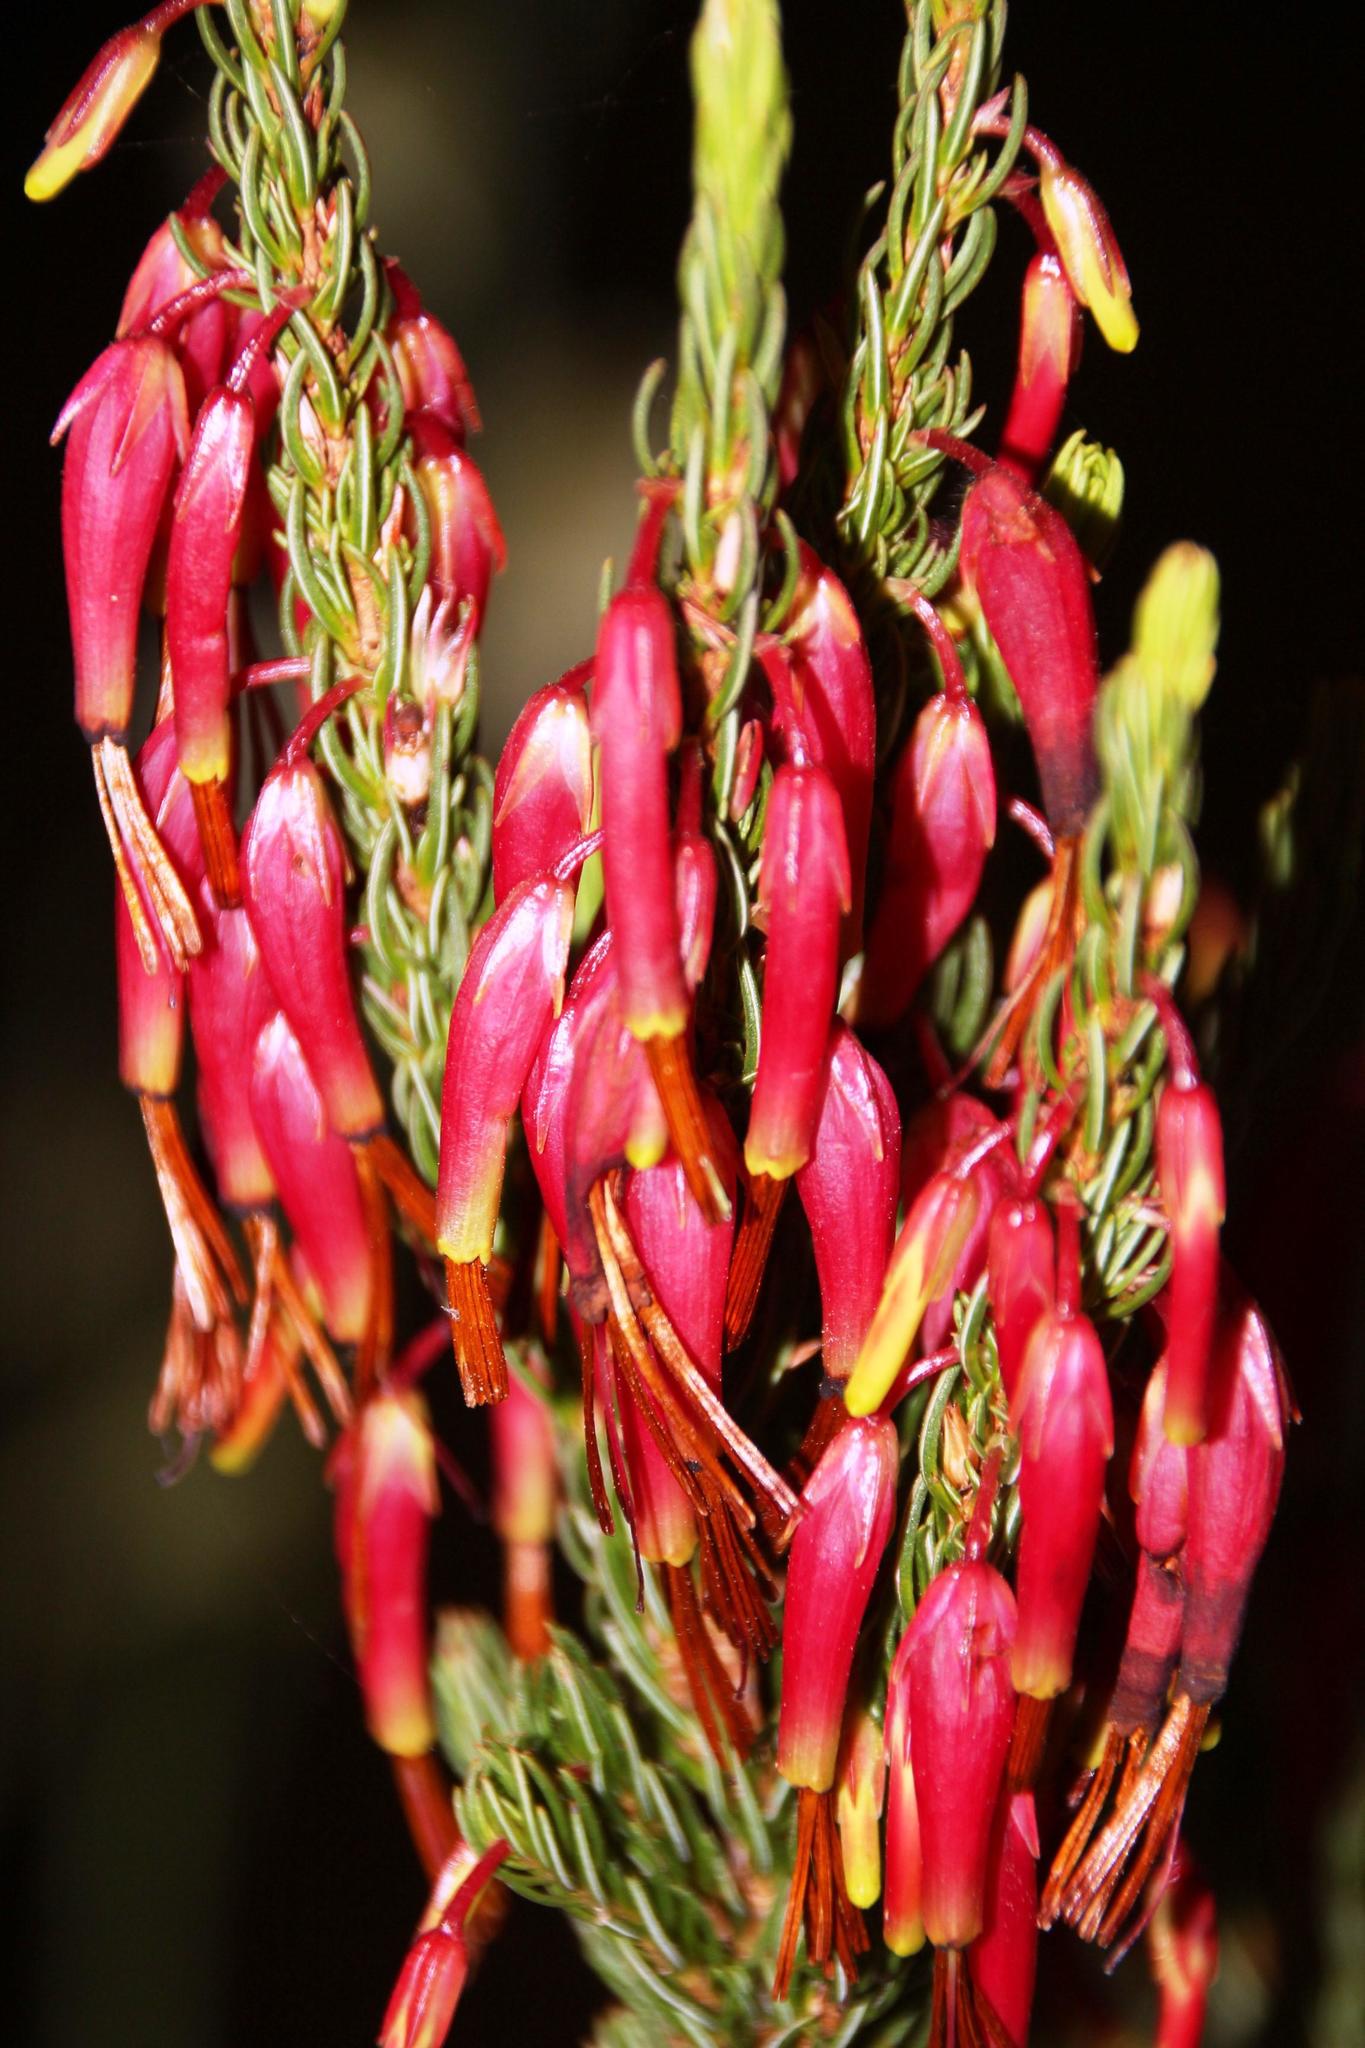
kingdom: Plantae
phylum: Tracheophyta
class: Magnoliopsida
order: Ericales
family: Ericaceae
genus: Erica
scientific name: Erica plukenetii
